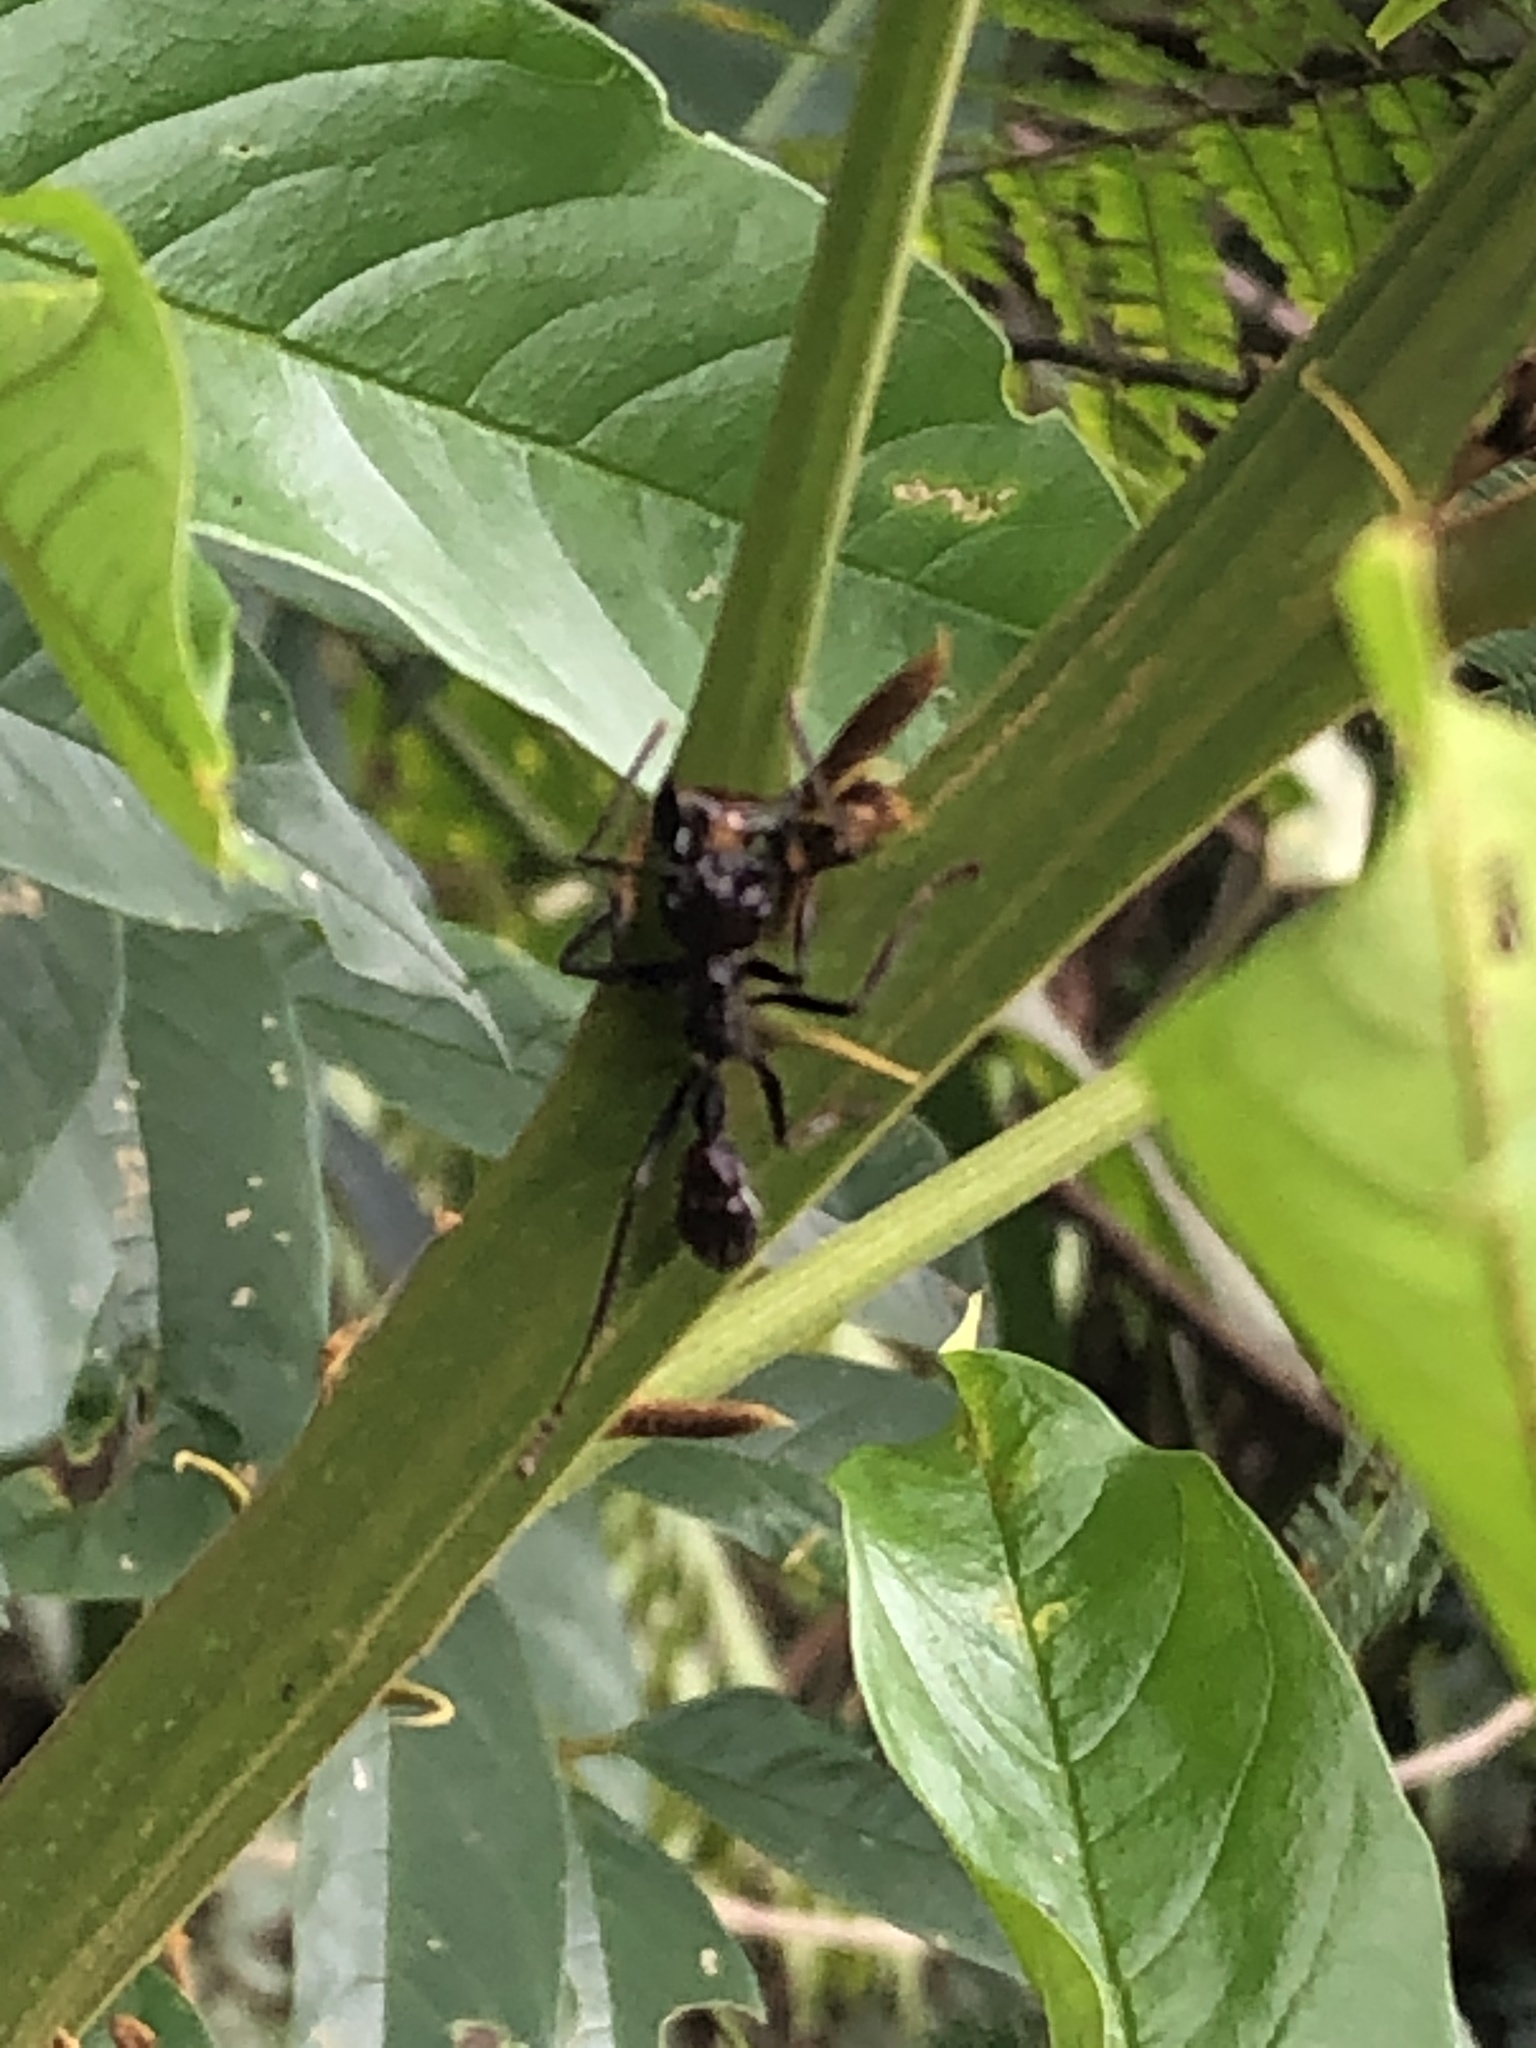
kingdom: Animalia
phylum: Arthropoda
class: Insecta
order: Hymenoptera
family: Formicidae
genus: Paraponera
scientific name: Paraponera clavata
